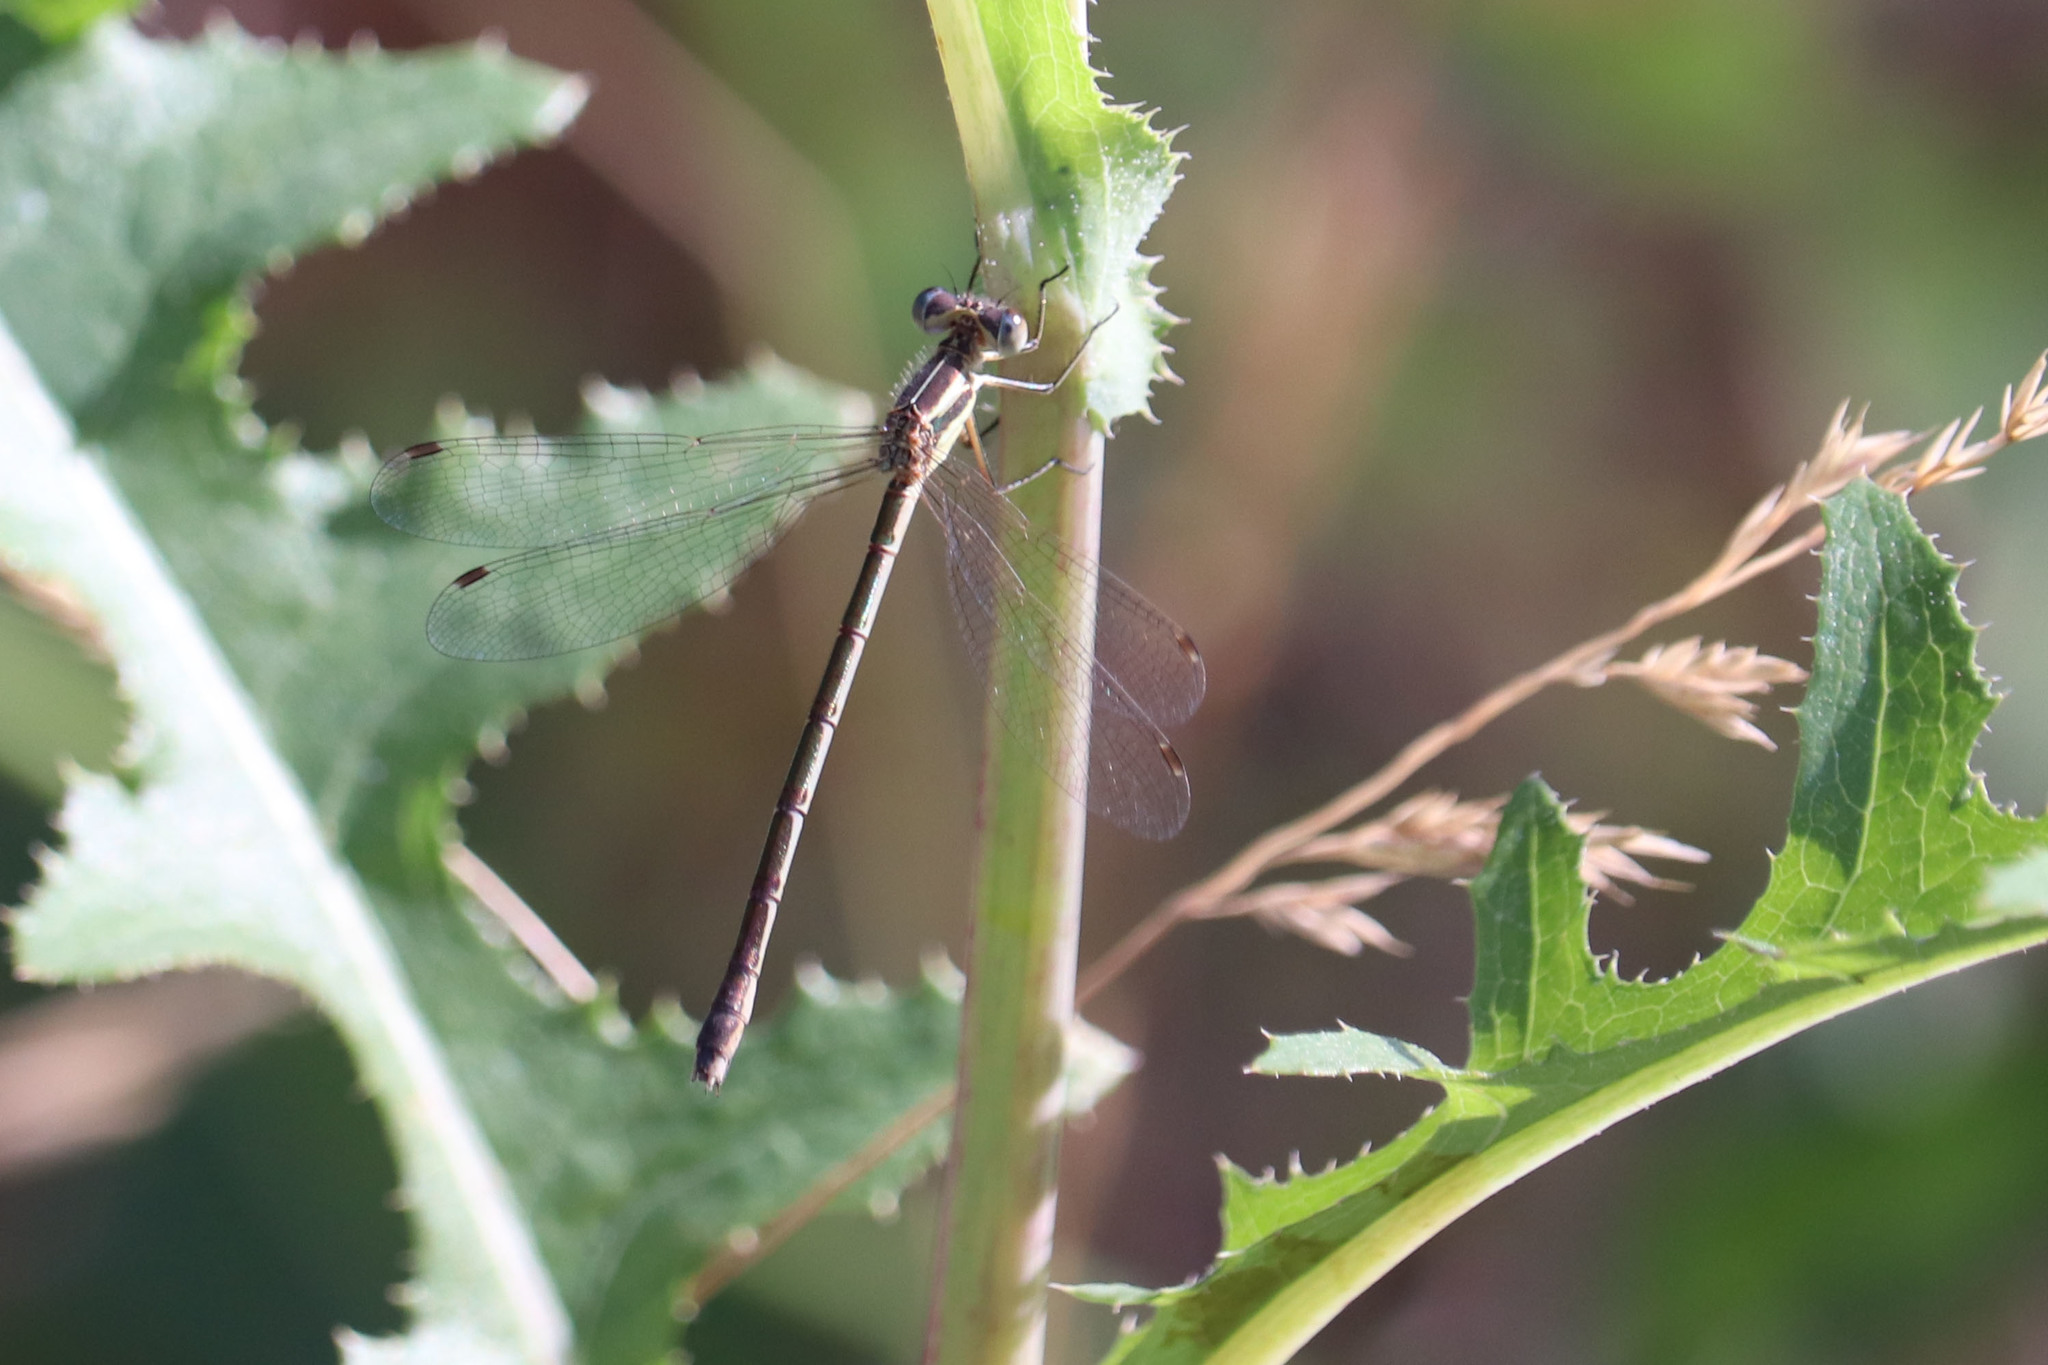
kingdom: Animalia
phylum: Arthropoda
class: Insecta
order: Odonata
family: Lestidae
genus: Lestes
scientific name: Lestes unguiculatus
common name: Lyre-tipped spreadwing
